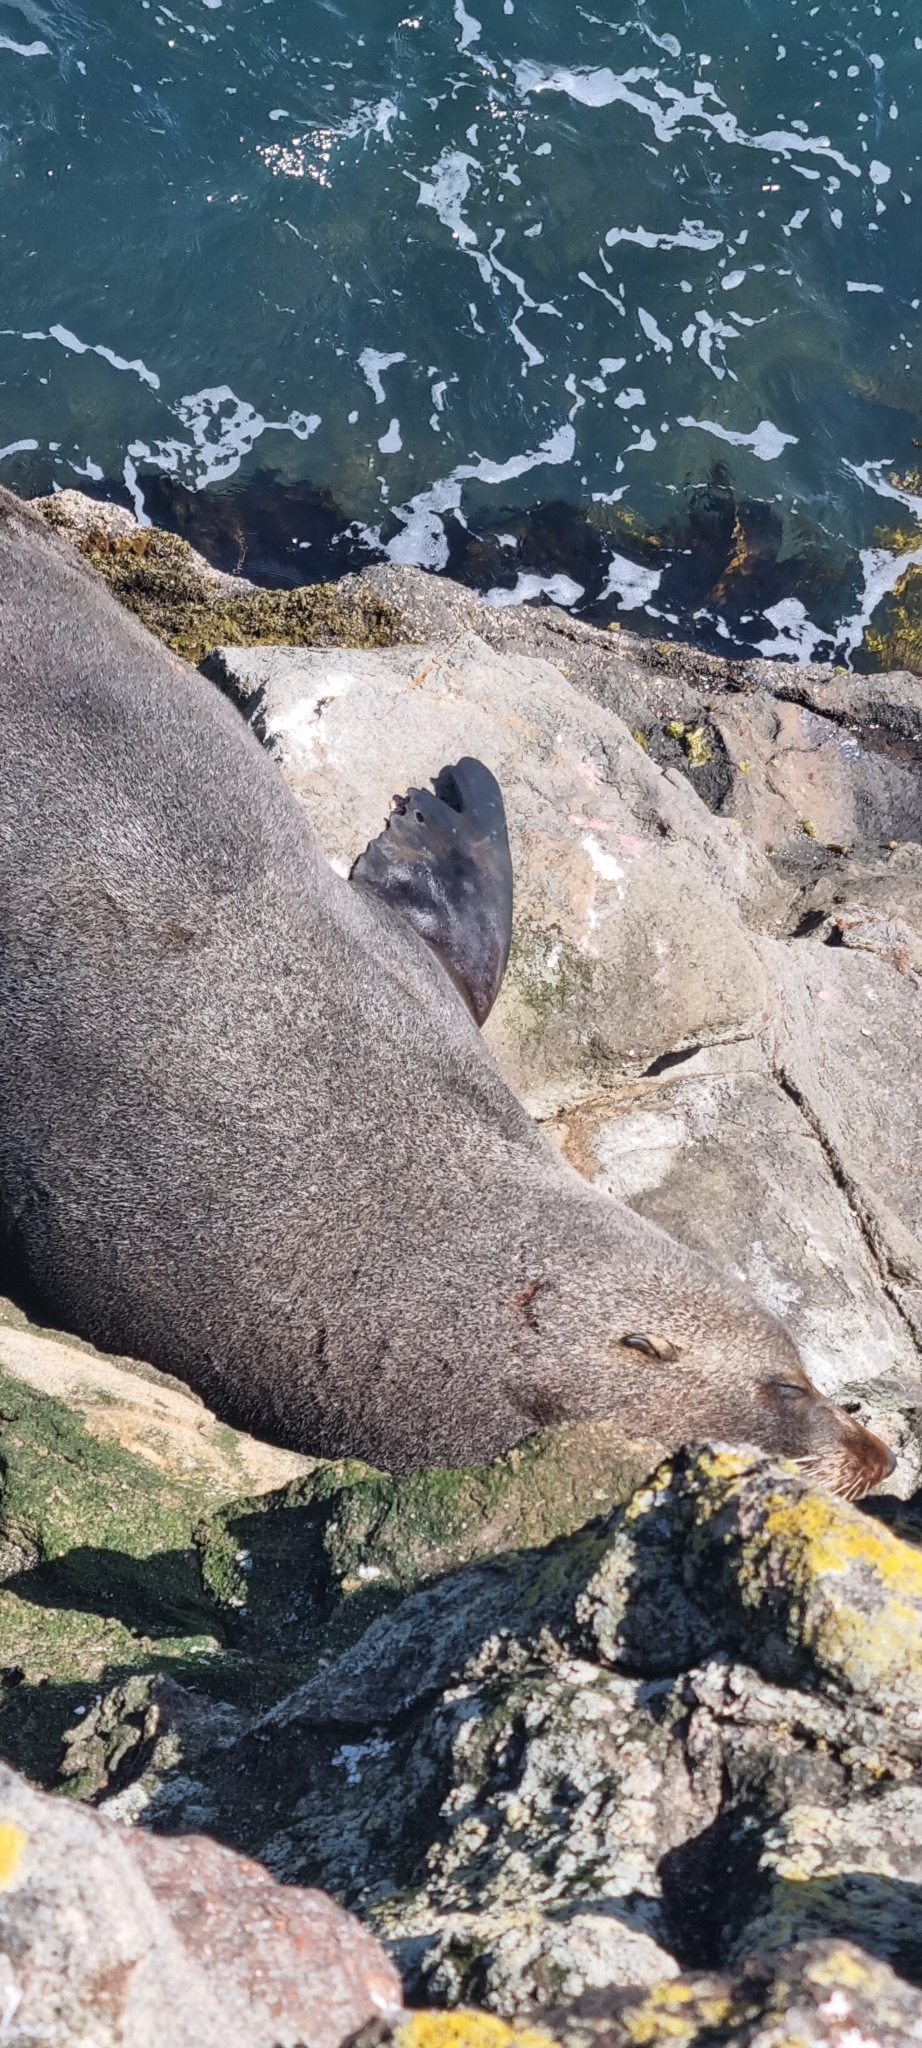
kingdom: Animalia
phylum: Chordata
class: Mammalia
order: Carnivora
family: Otariidae
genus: Arctocephalus
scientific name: Arctocephalus forsteri
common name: New zealand fur seal
